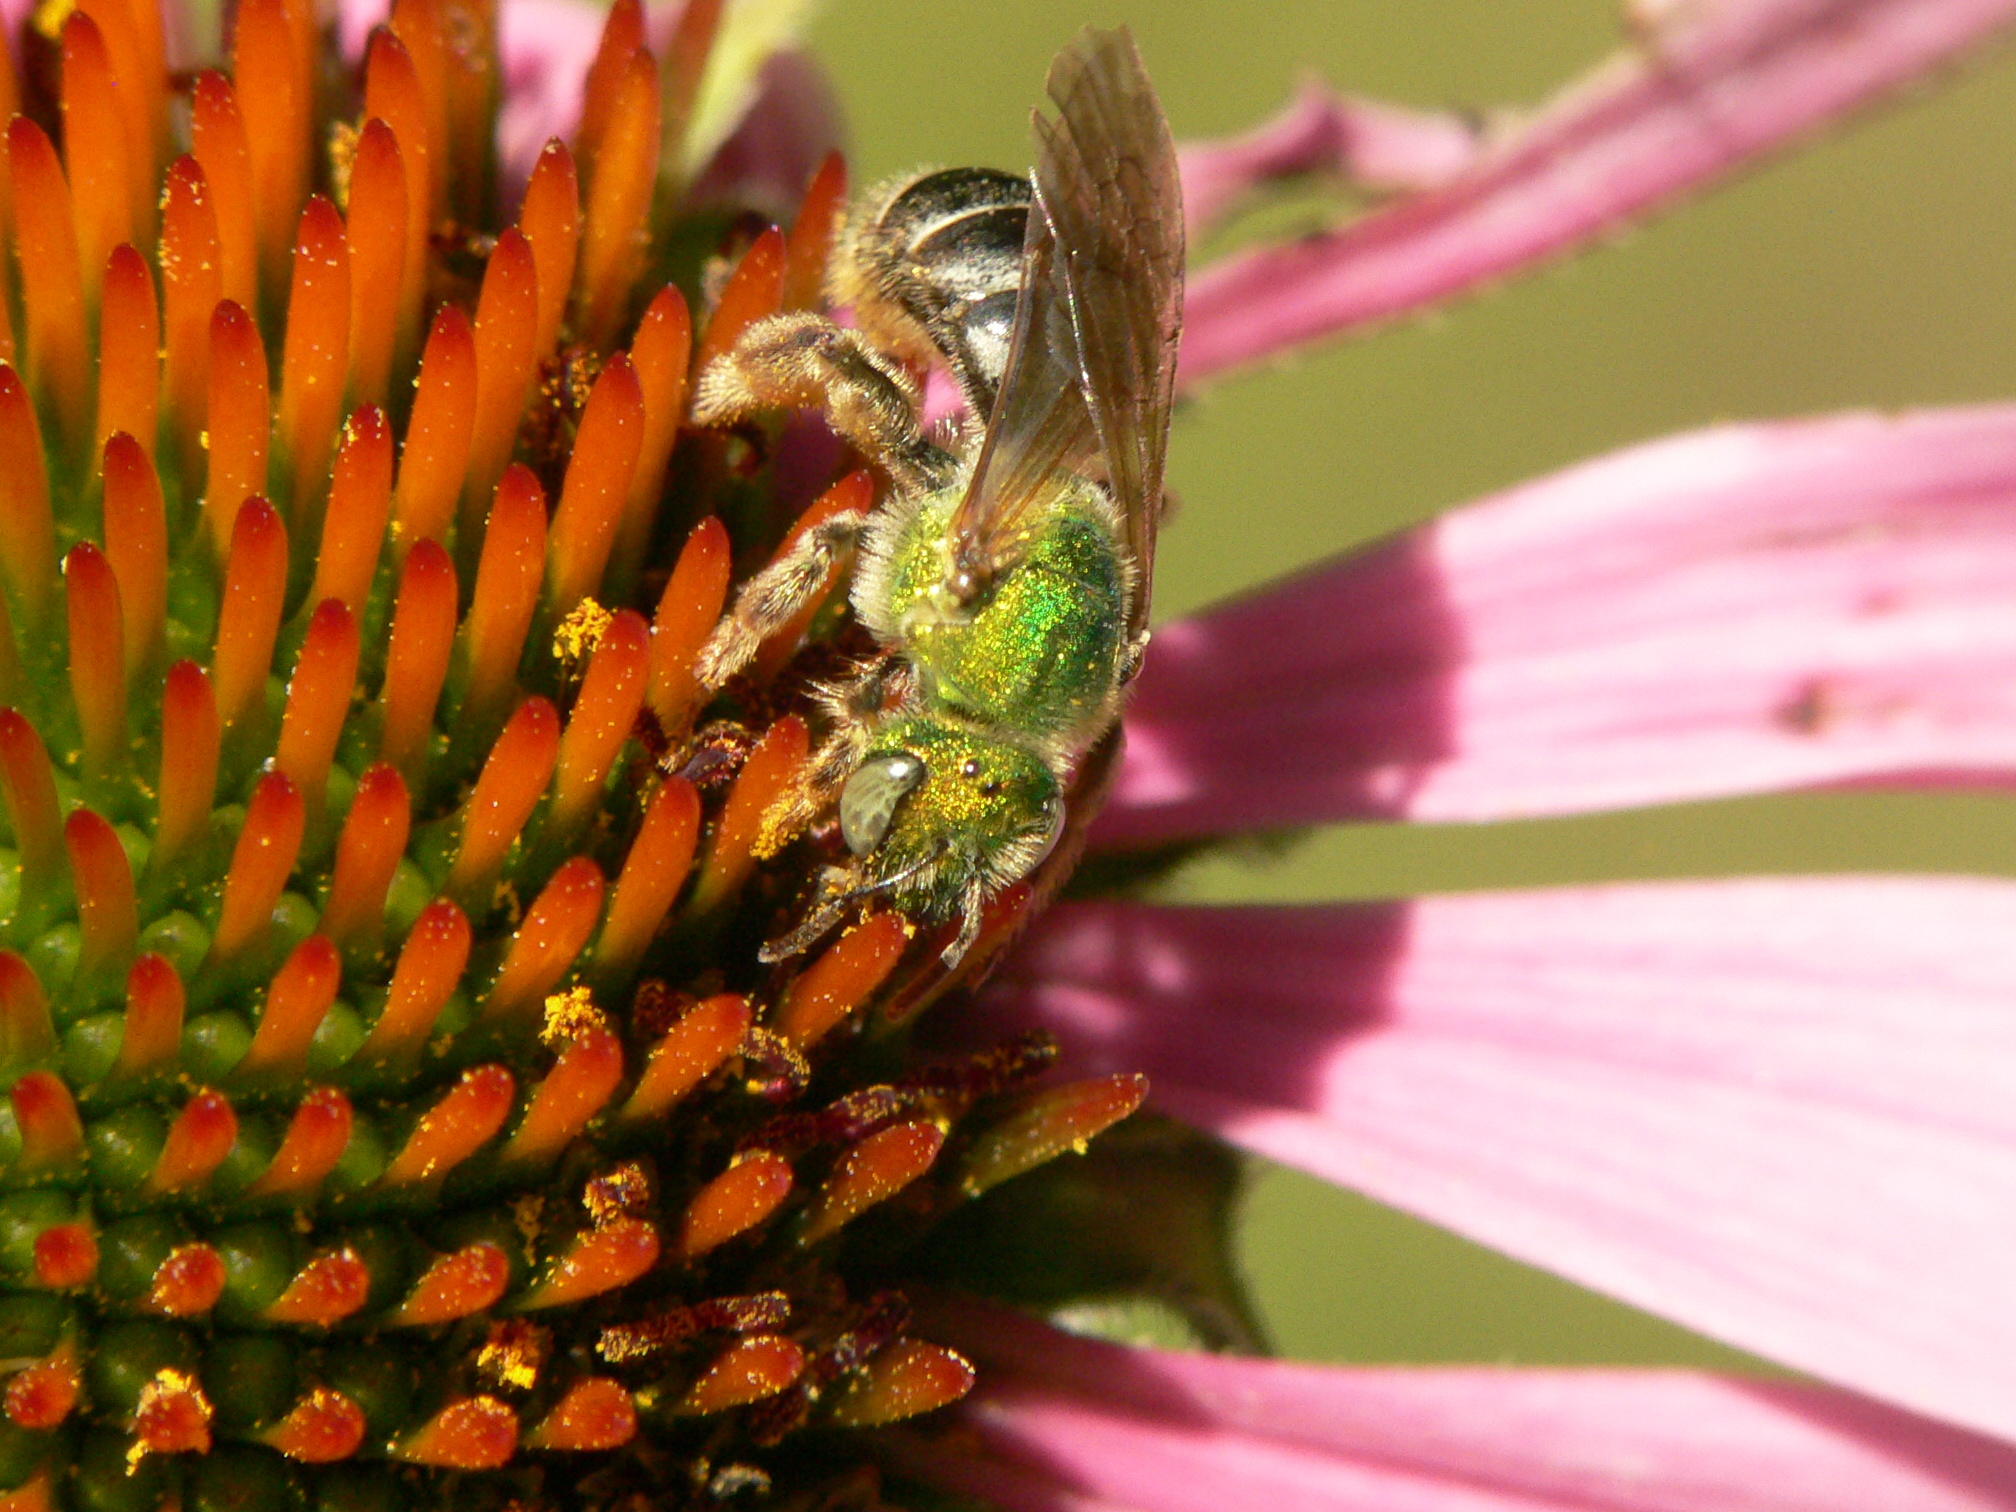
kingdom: Animalia
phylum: Arthropoda
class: Insecta
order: Hymenoptera
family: Halictidae
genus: Agapostemon
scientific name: Agapostemon virescens
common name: Bicolored striped sweat bee
